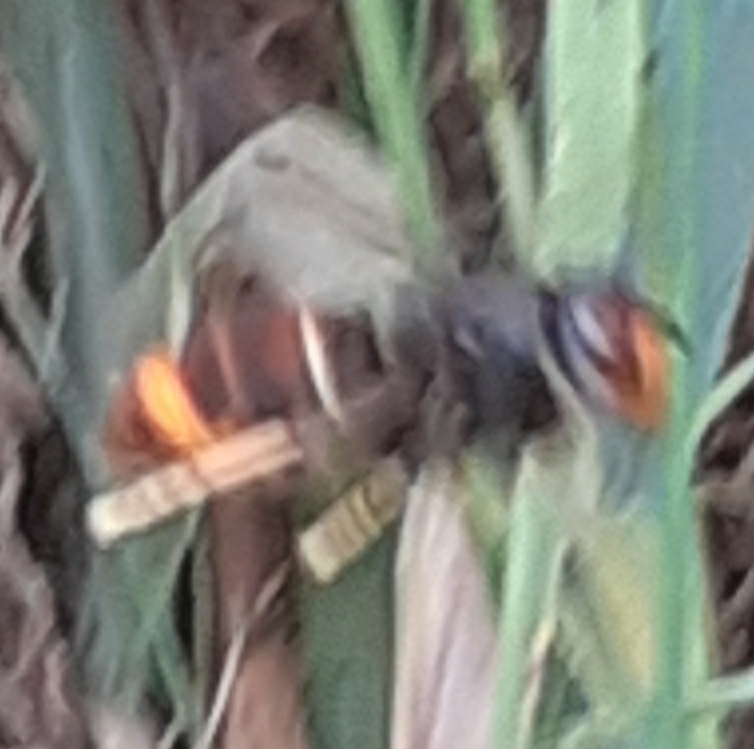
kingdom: Animalia
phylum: Arthropoda
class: Insecta
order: Hymenoptera
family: Vespidae
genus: Vespa
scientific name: Vespa velutina
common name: Asian hornet
